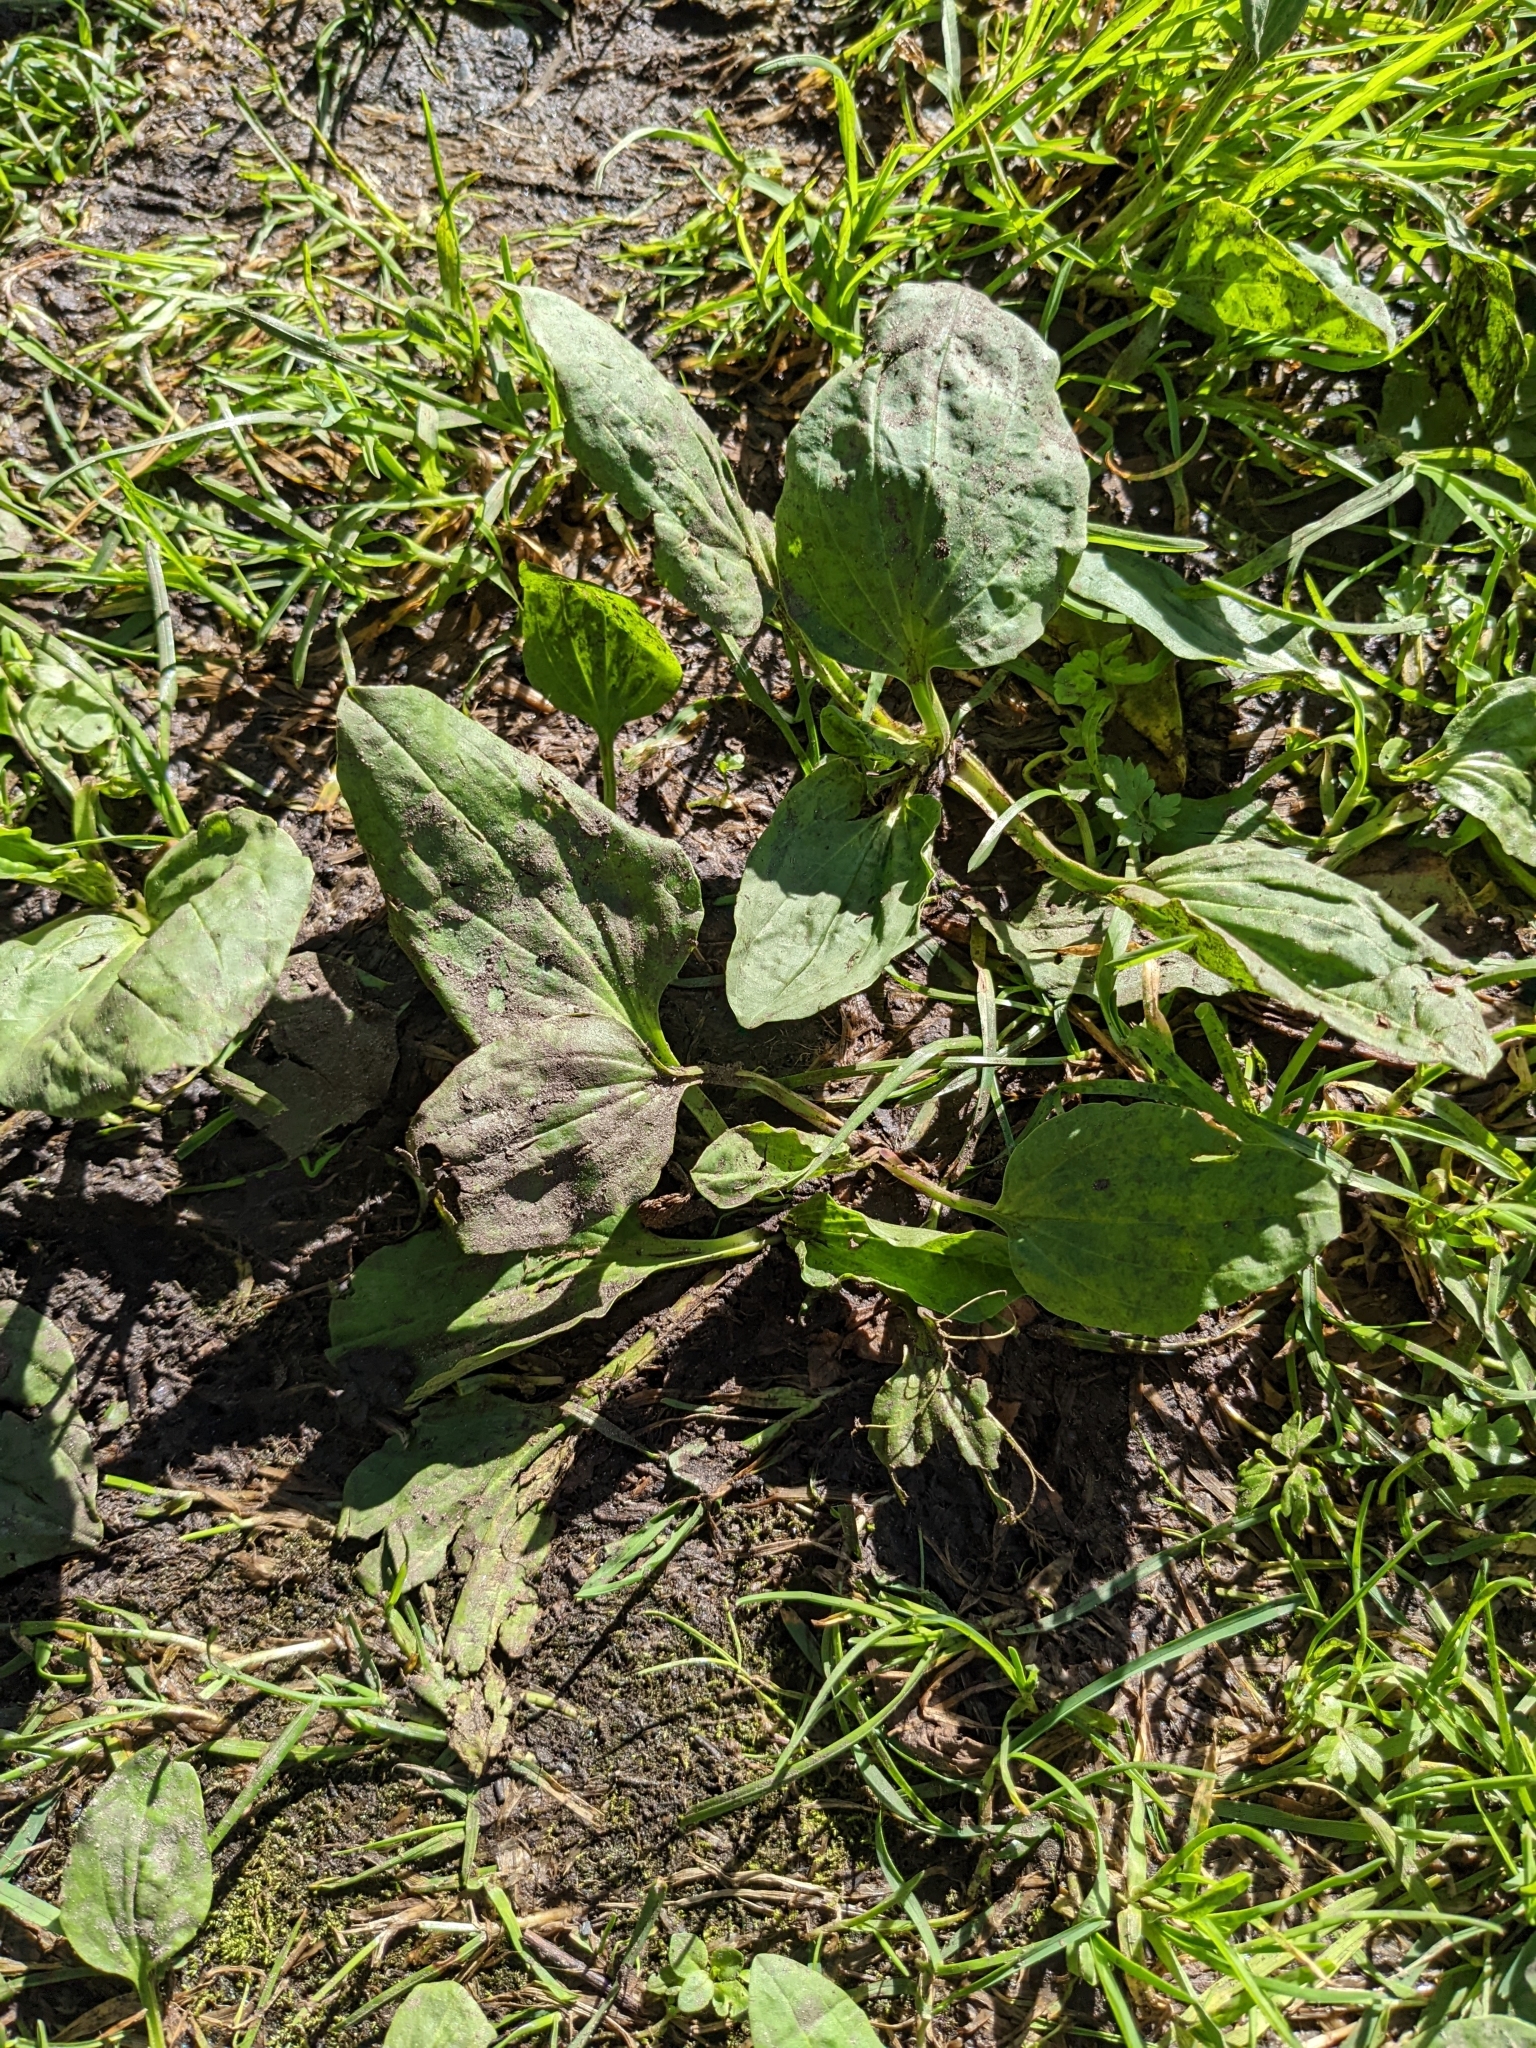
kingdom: Plantae
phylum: Tracheophyta
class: Magnoliopsida
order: Lamiales
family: Plantaginaceae
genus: Plantago
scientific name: Plantago major
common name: Common plantain
